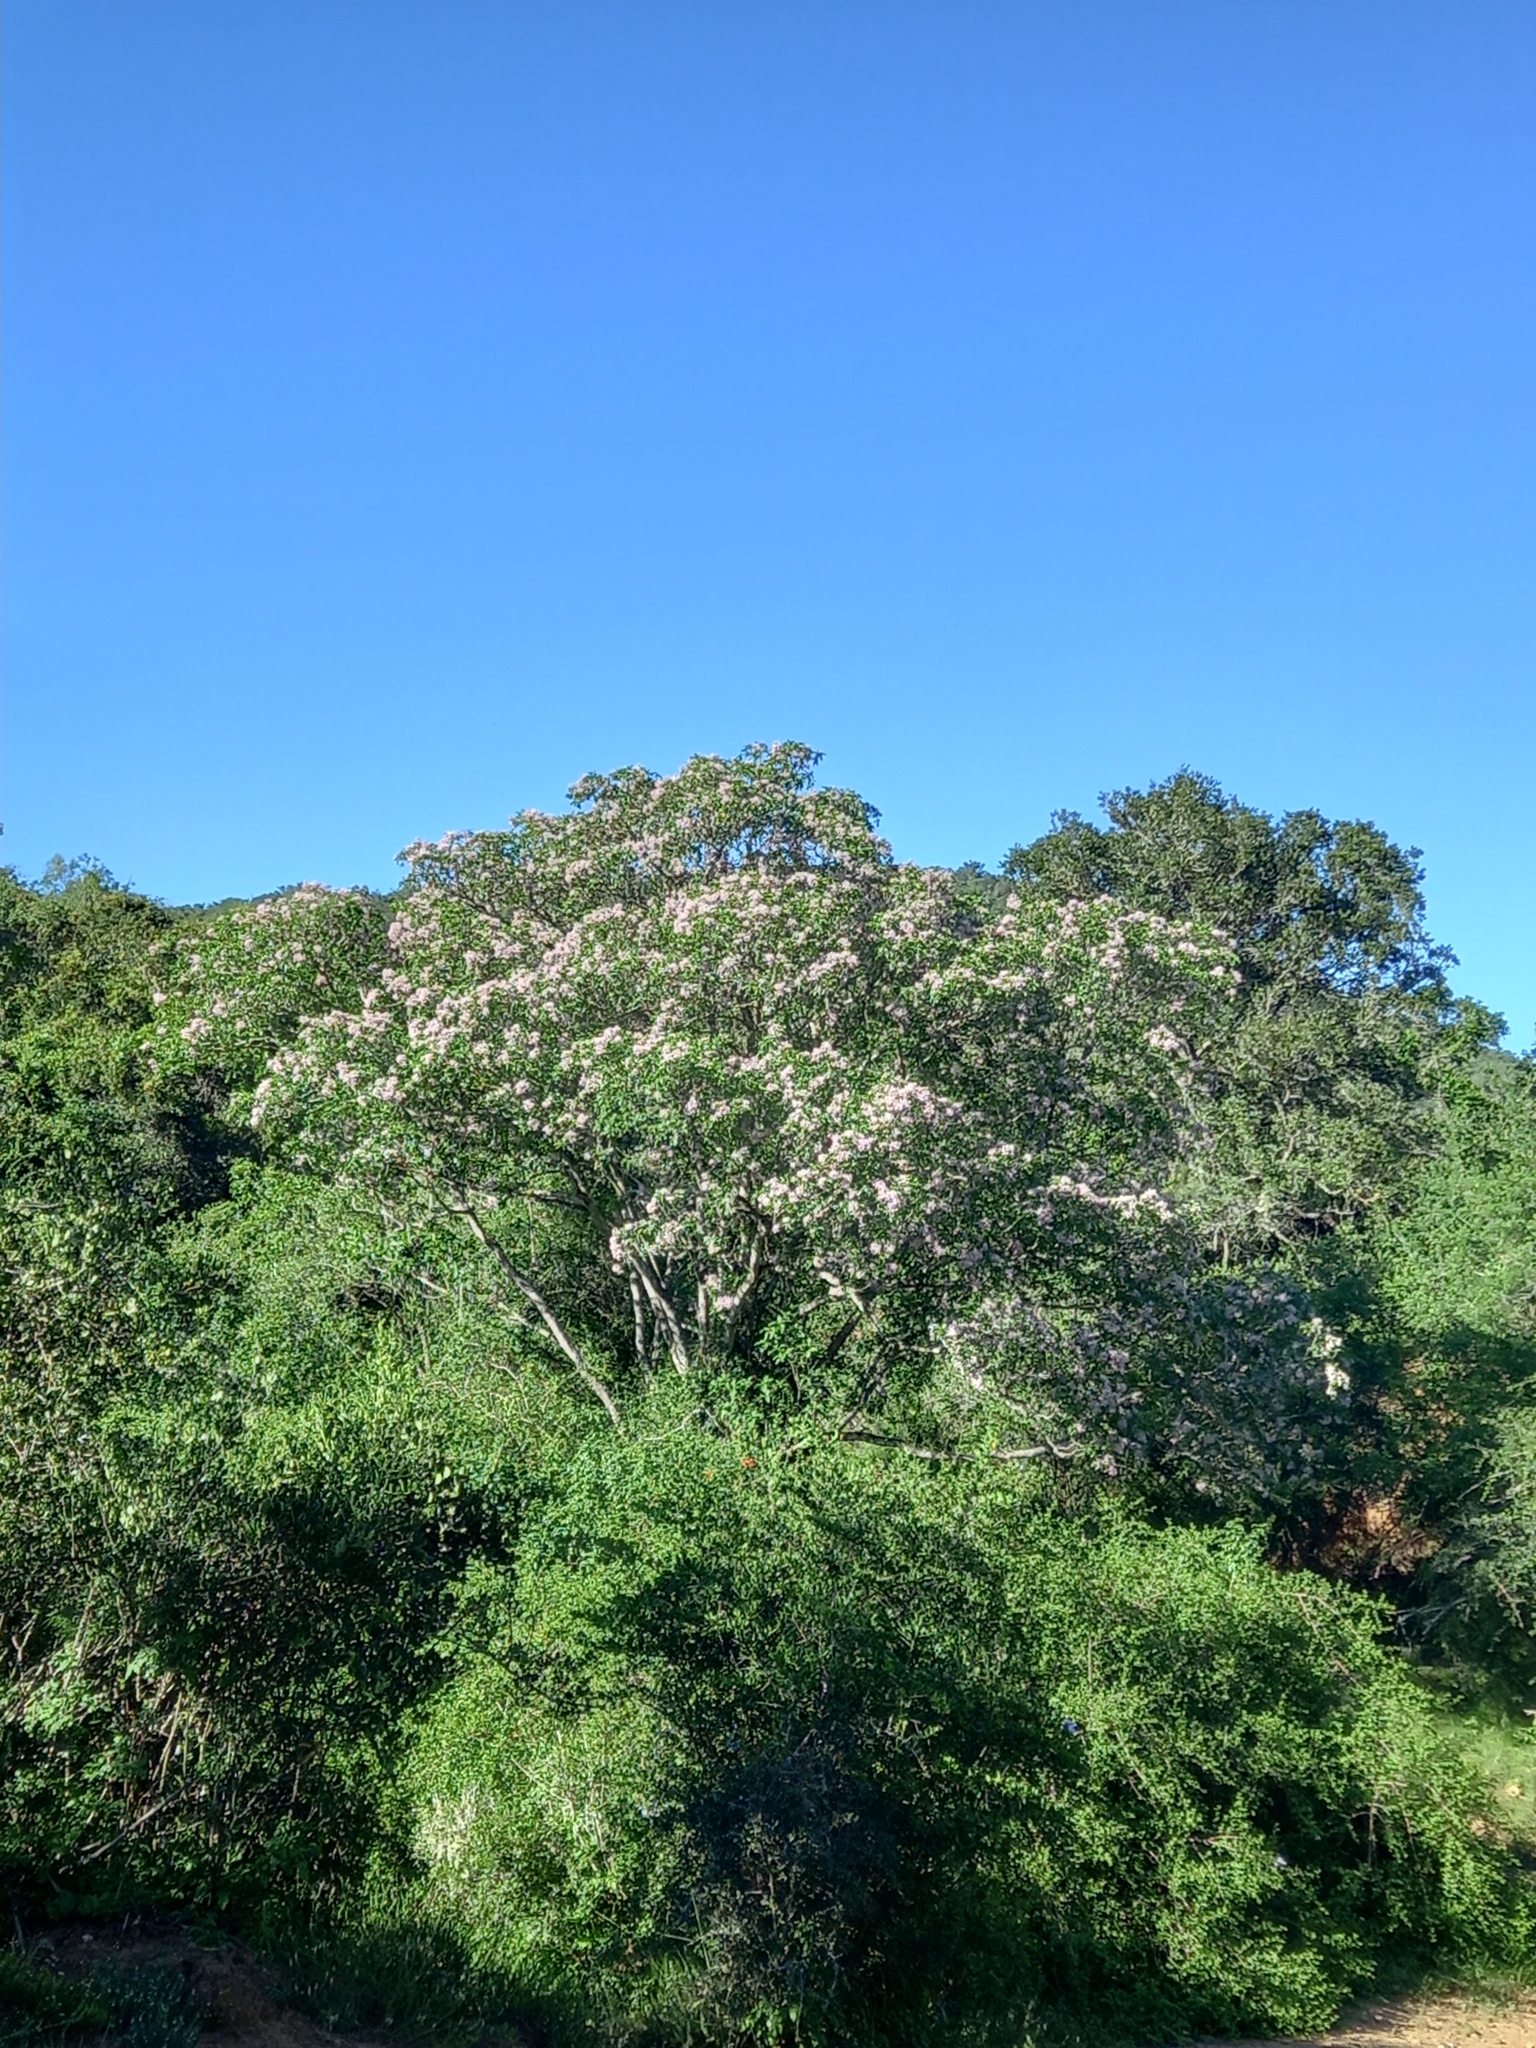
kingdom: Plantae
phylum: Tracheophyta
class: Magnoliopsida
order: Sapindales
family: Rutaceae
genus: Calodendrum
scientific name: Calodendrum capense
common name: Cape chestnut
